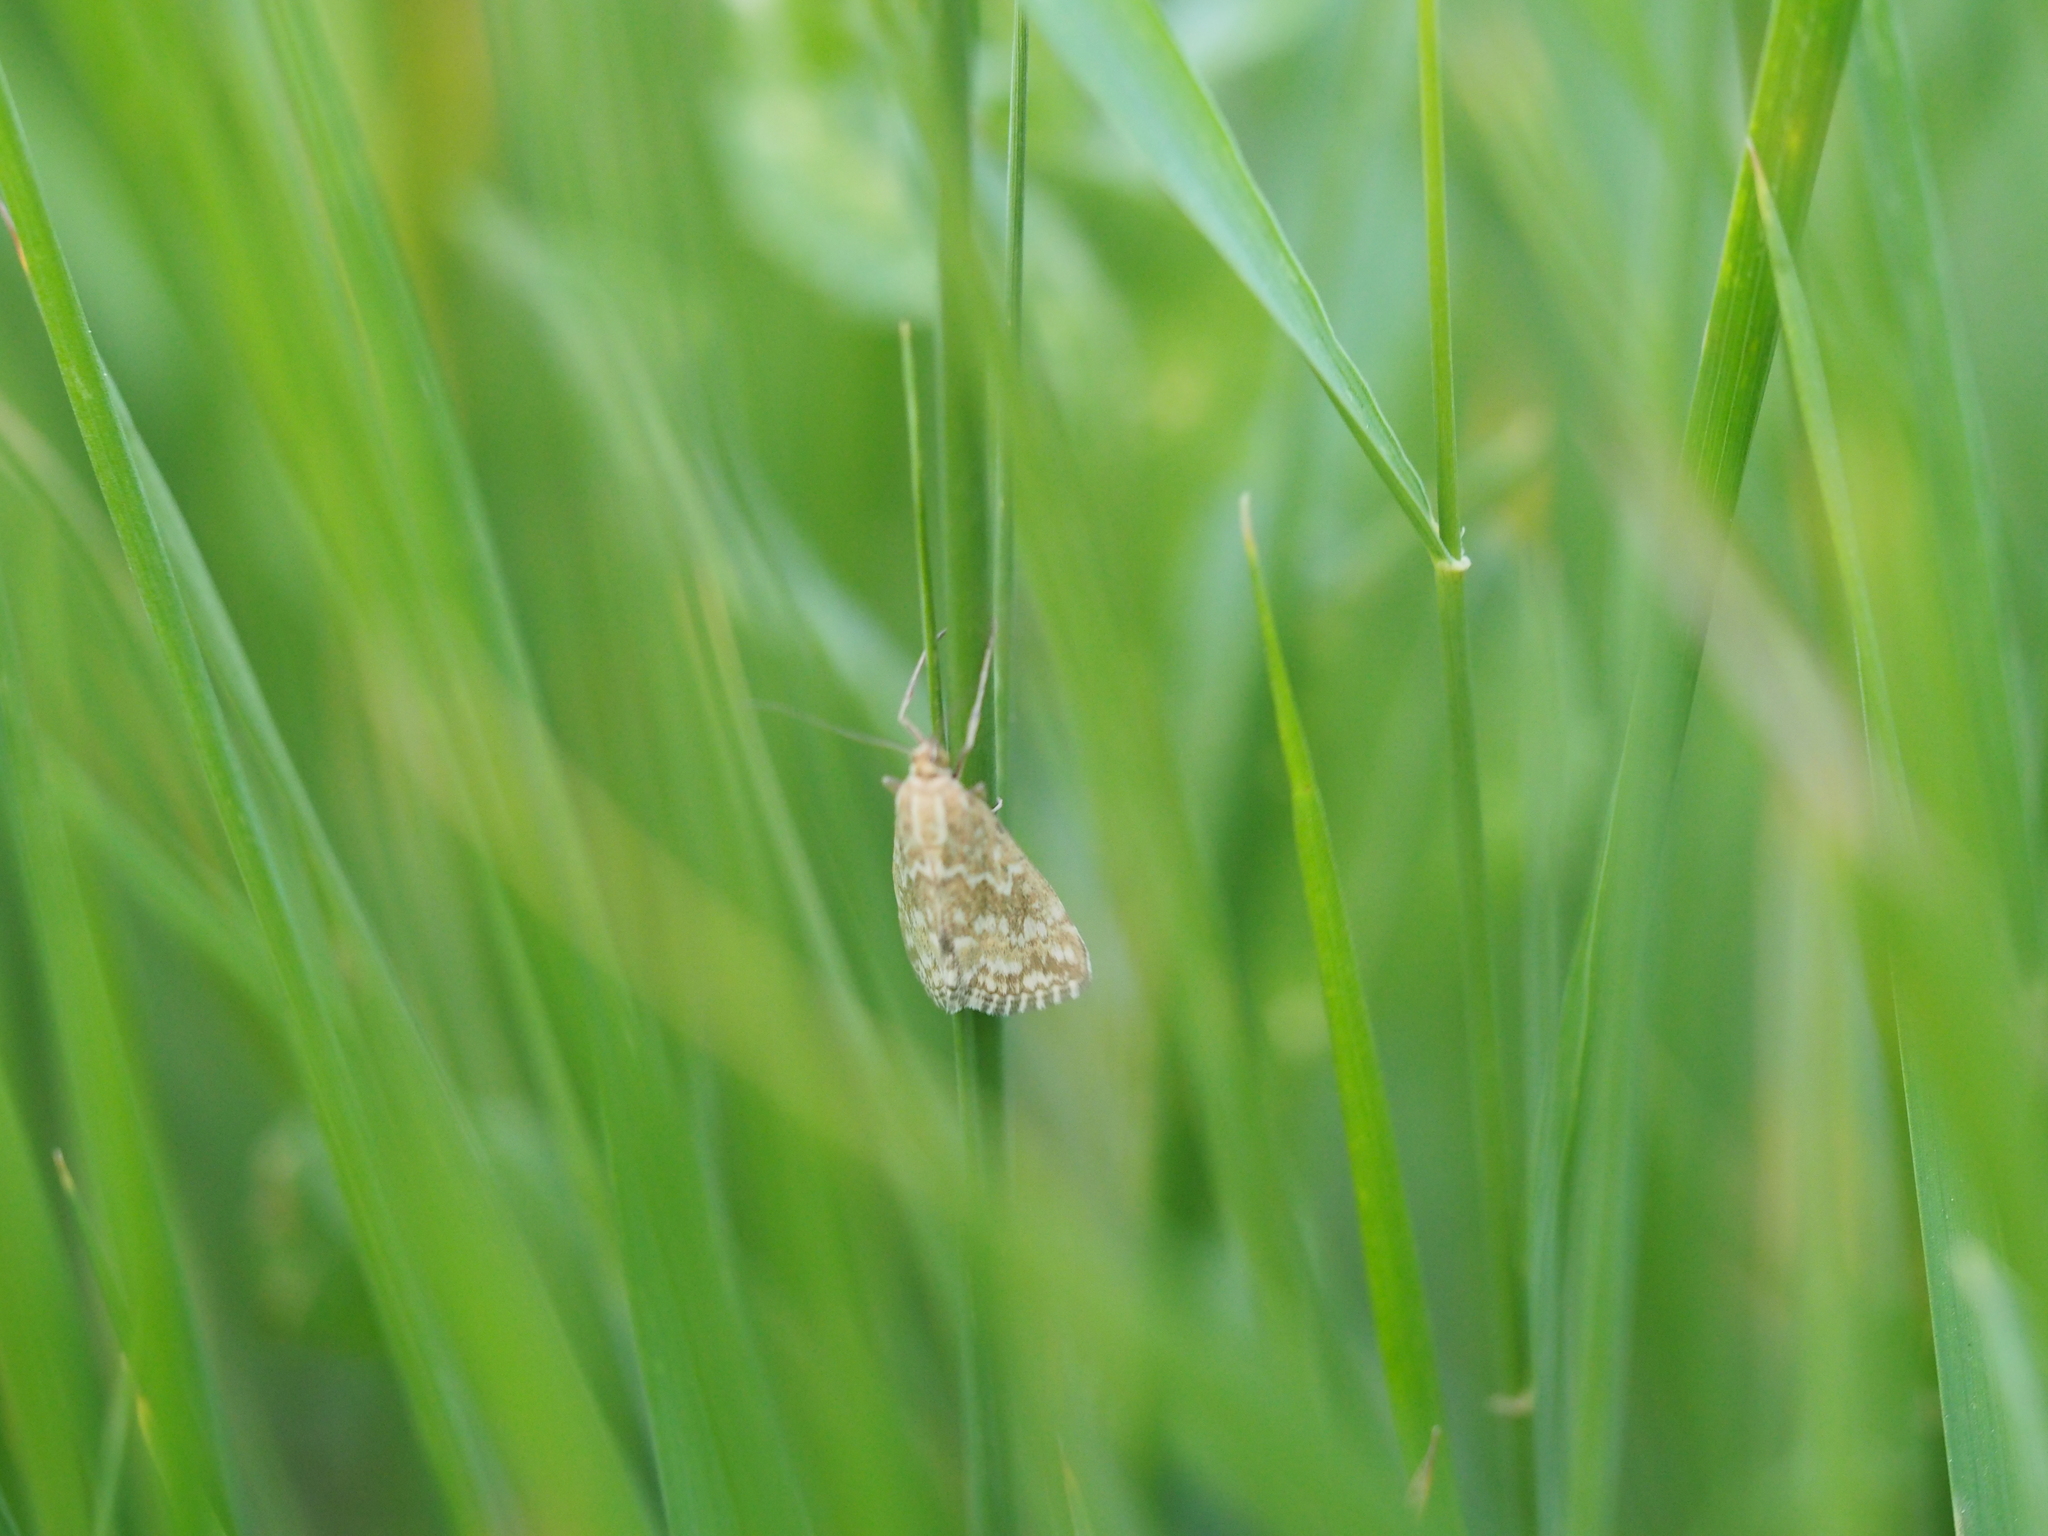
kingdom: Animalia
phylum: Arthropoda
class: Insecta
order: Lepidoptera
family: Crambidae
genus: Evergestis
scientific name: Evergestis frumentalis
